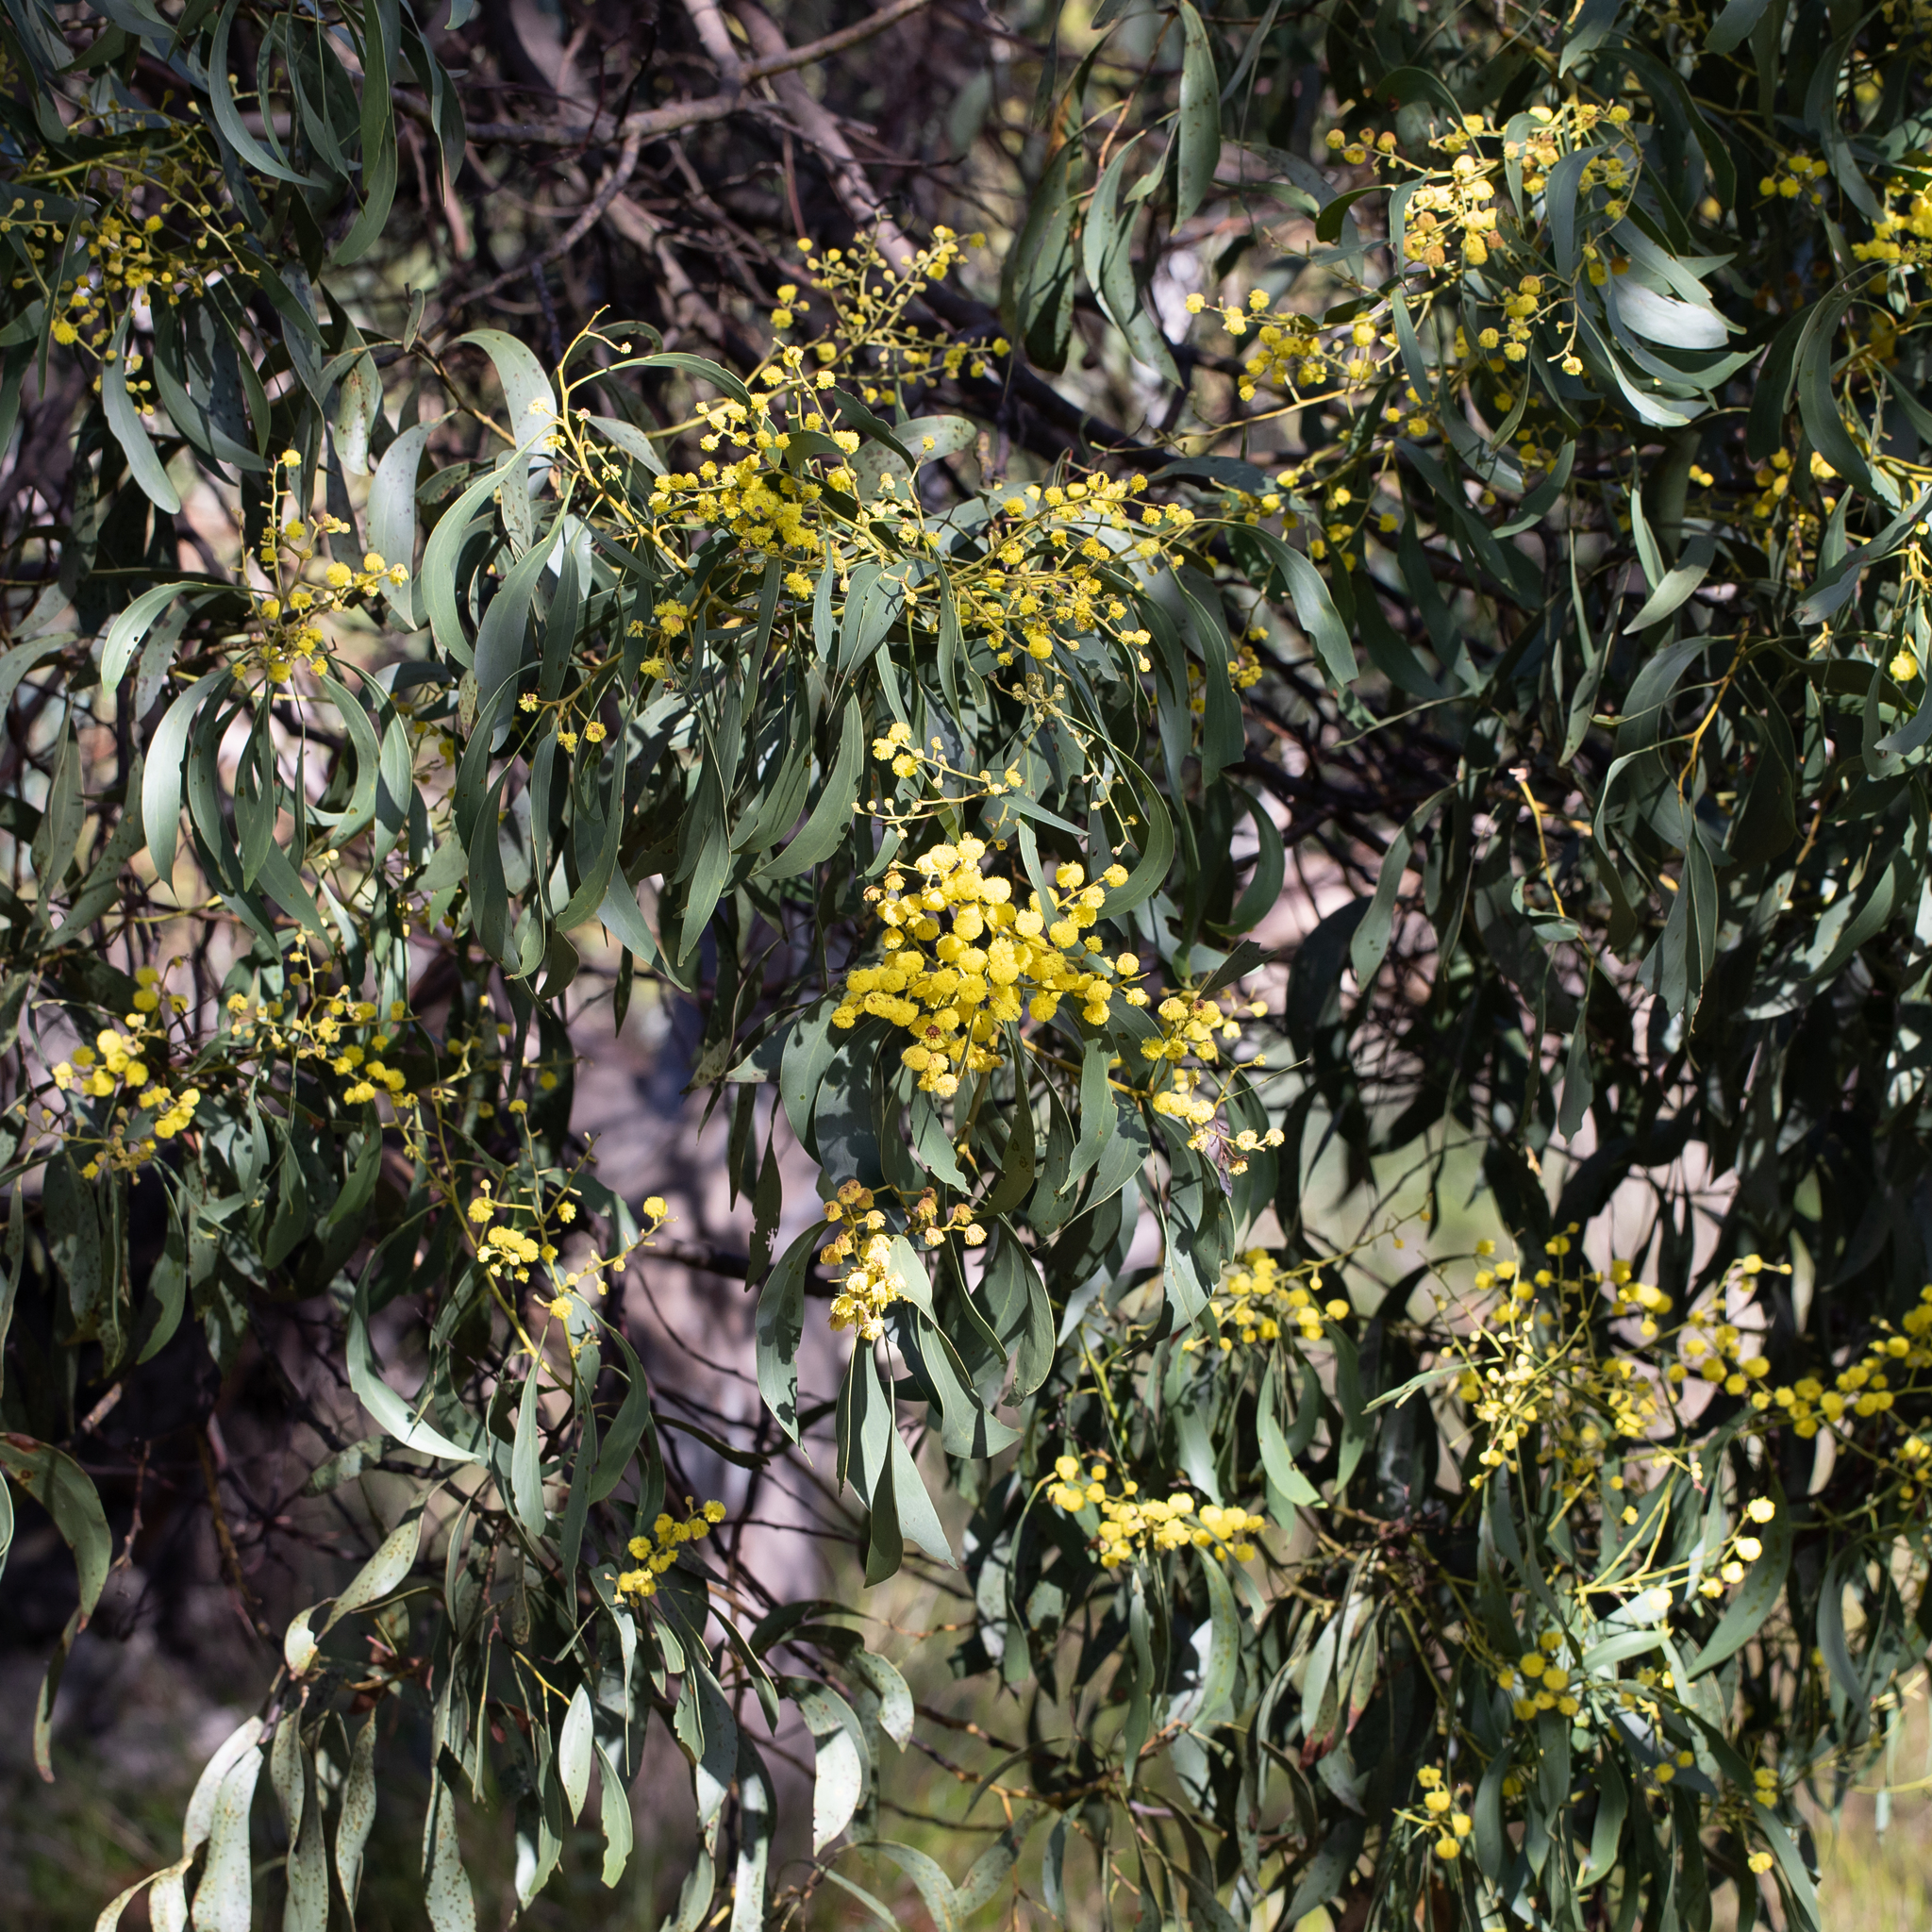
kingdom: Plantae
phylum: Tracheophyta
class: Magnoliopsida
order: Fabales
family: Fabaceae
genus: Acacia
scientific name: Acacia pycnantha
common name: Golden wattle
